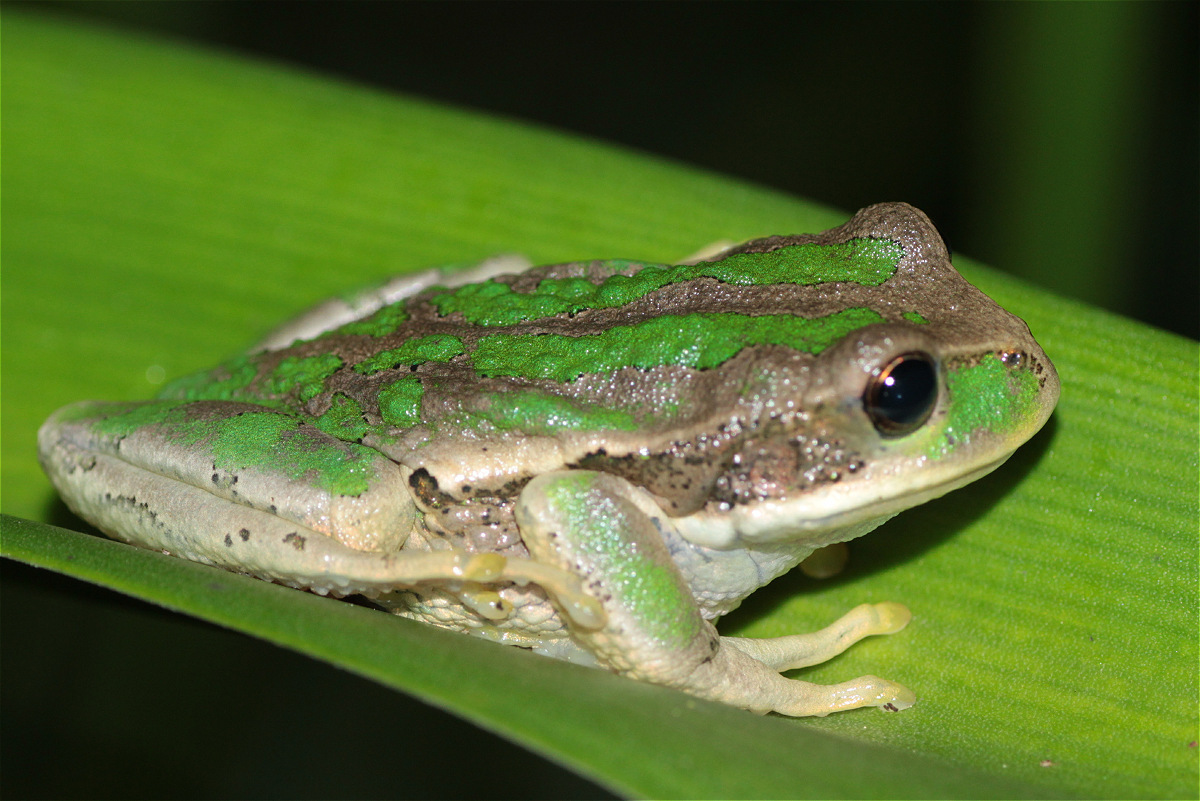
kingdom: Animalia
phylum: Chordata
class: Amphibia
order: Anura
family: Hemiphractidae
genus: Gastrotheca
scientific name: Gastrotheca cuencana
